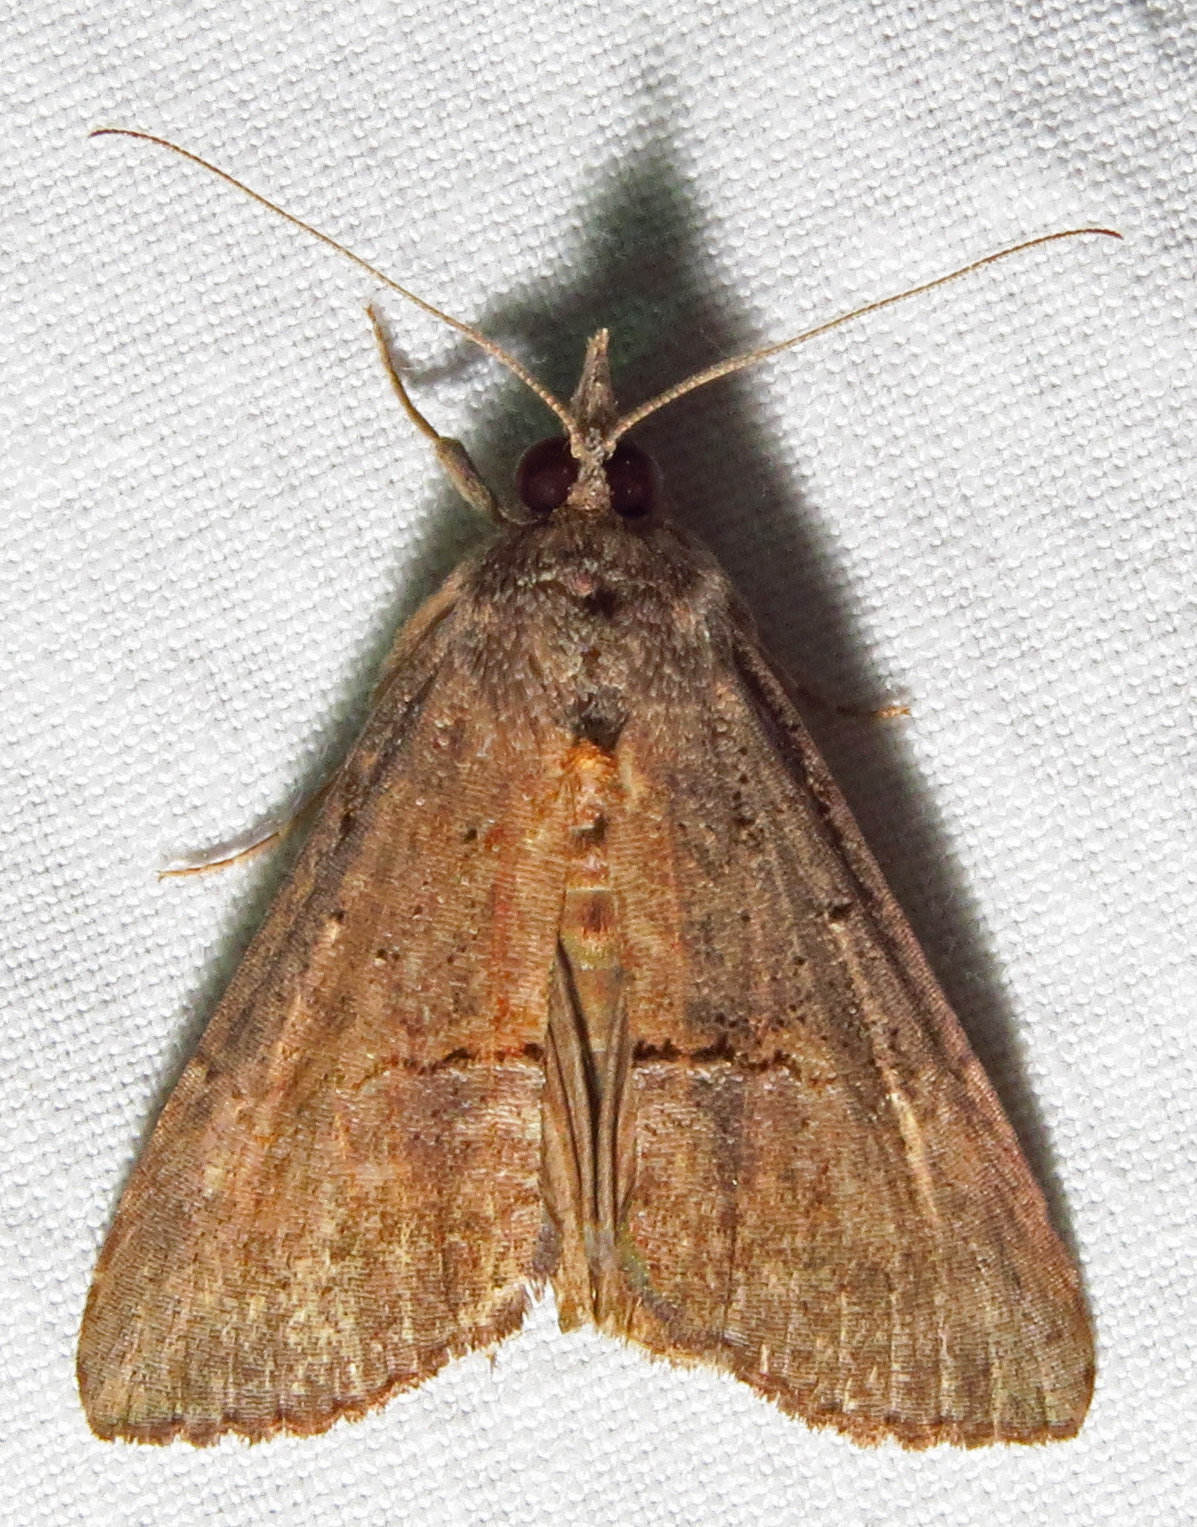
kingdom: Animalia
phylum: Arthropoda
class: Insecta
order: Lepidoptera
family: Erebidae
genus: Hypena
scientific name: Hypena scabra
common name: Green cloverworm
